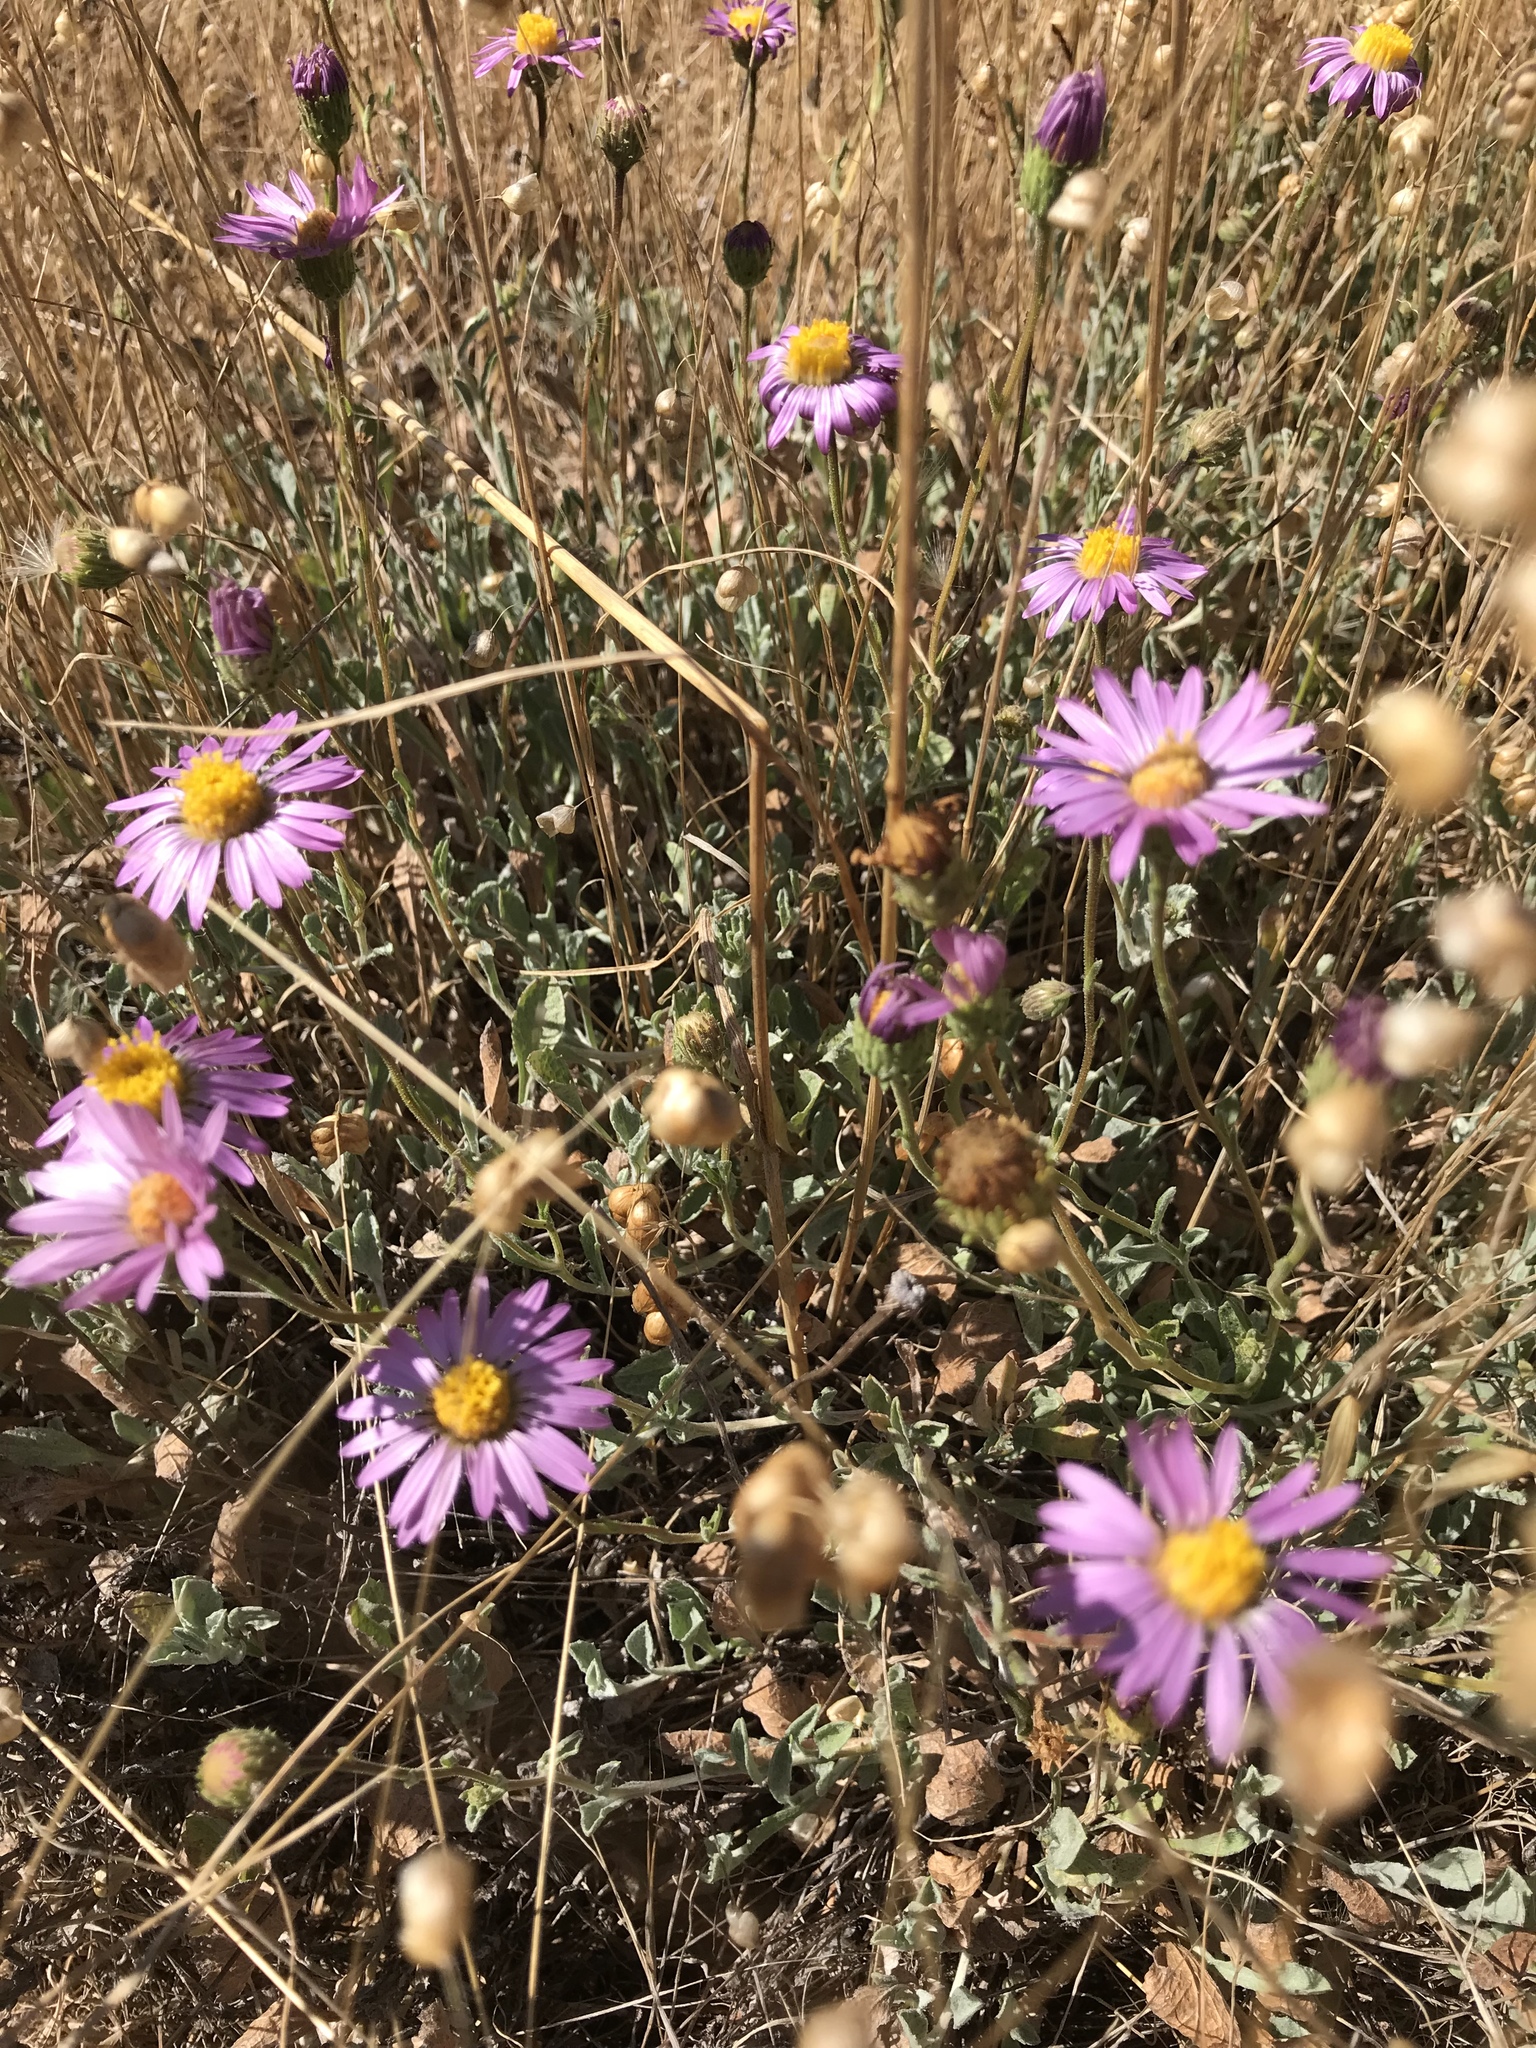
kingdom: Plantae
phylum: Tracheophyta
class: Magnoliopsida
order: Asterales
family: Asteraceae
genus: Corethrogyne
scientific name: Corethrogyne filaginifolia
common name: Sand-aster
